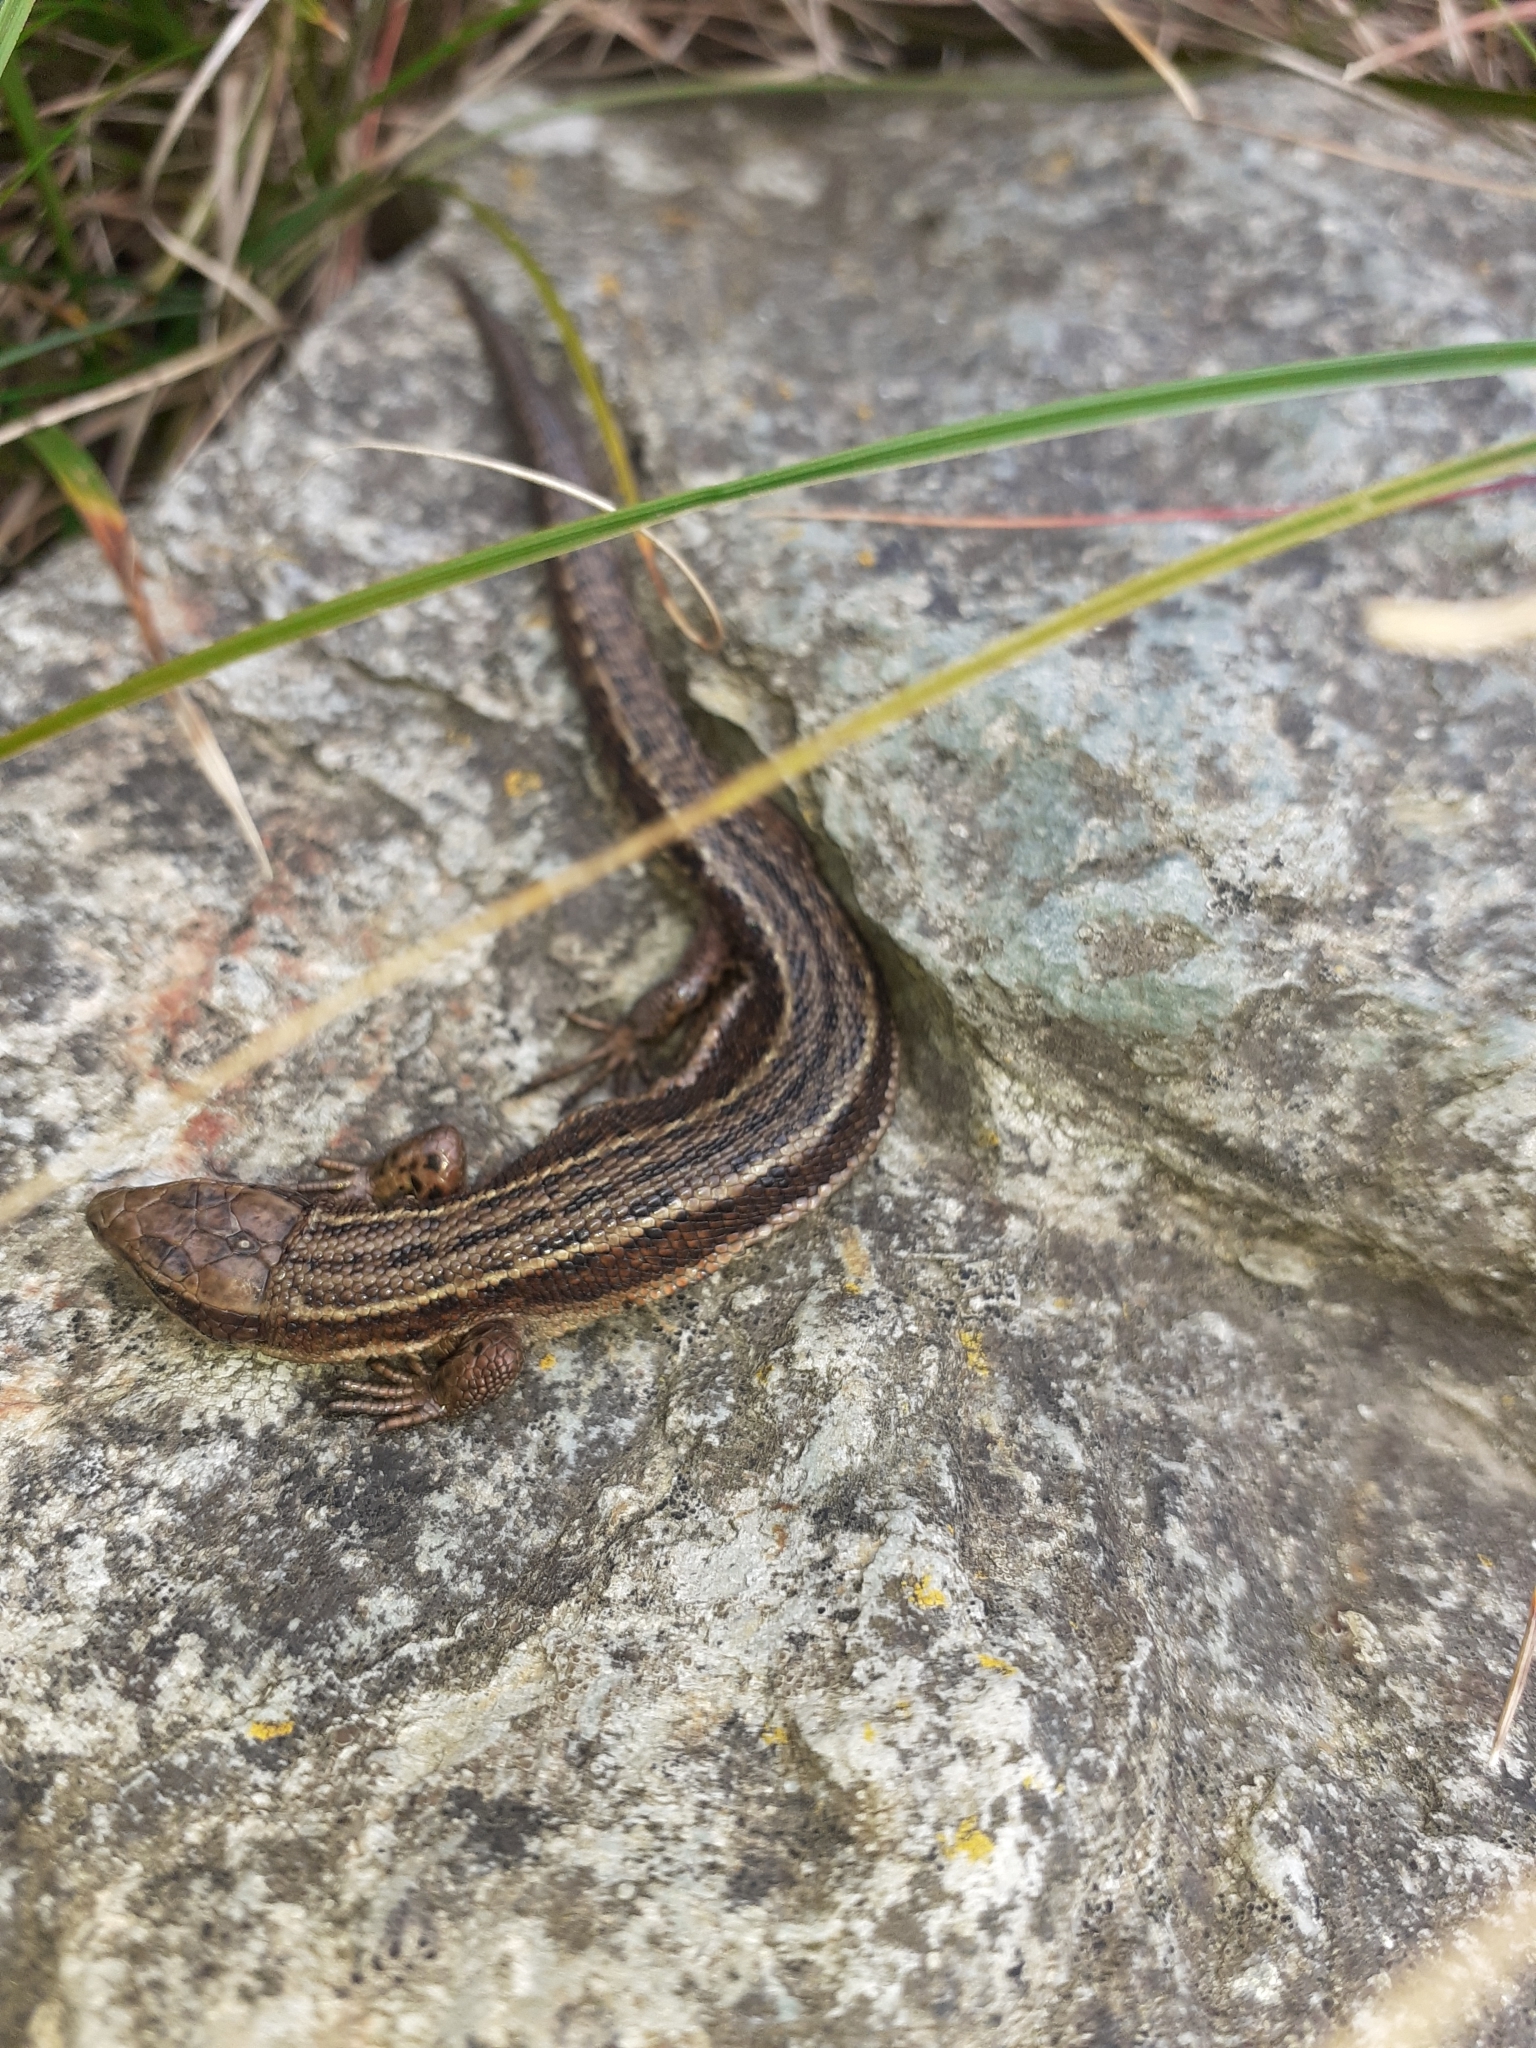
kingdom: Animalia
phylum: Chordata
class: Squamata
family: Lacertidae
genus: Zootoca
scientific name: Zootoca vivipara
